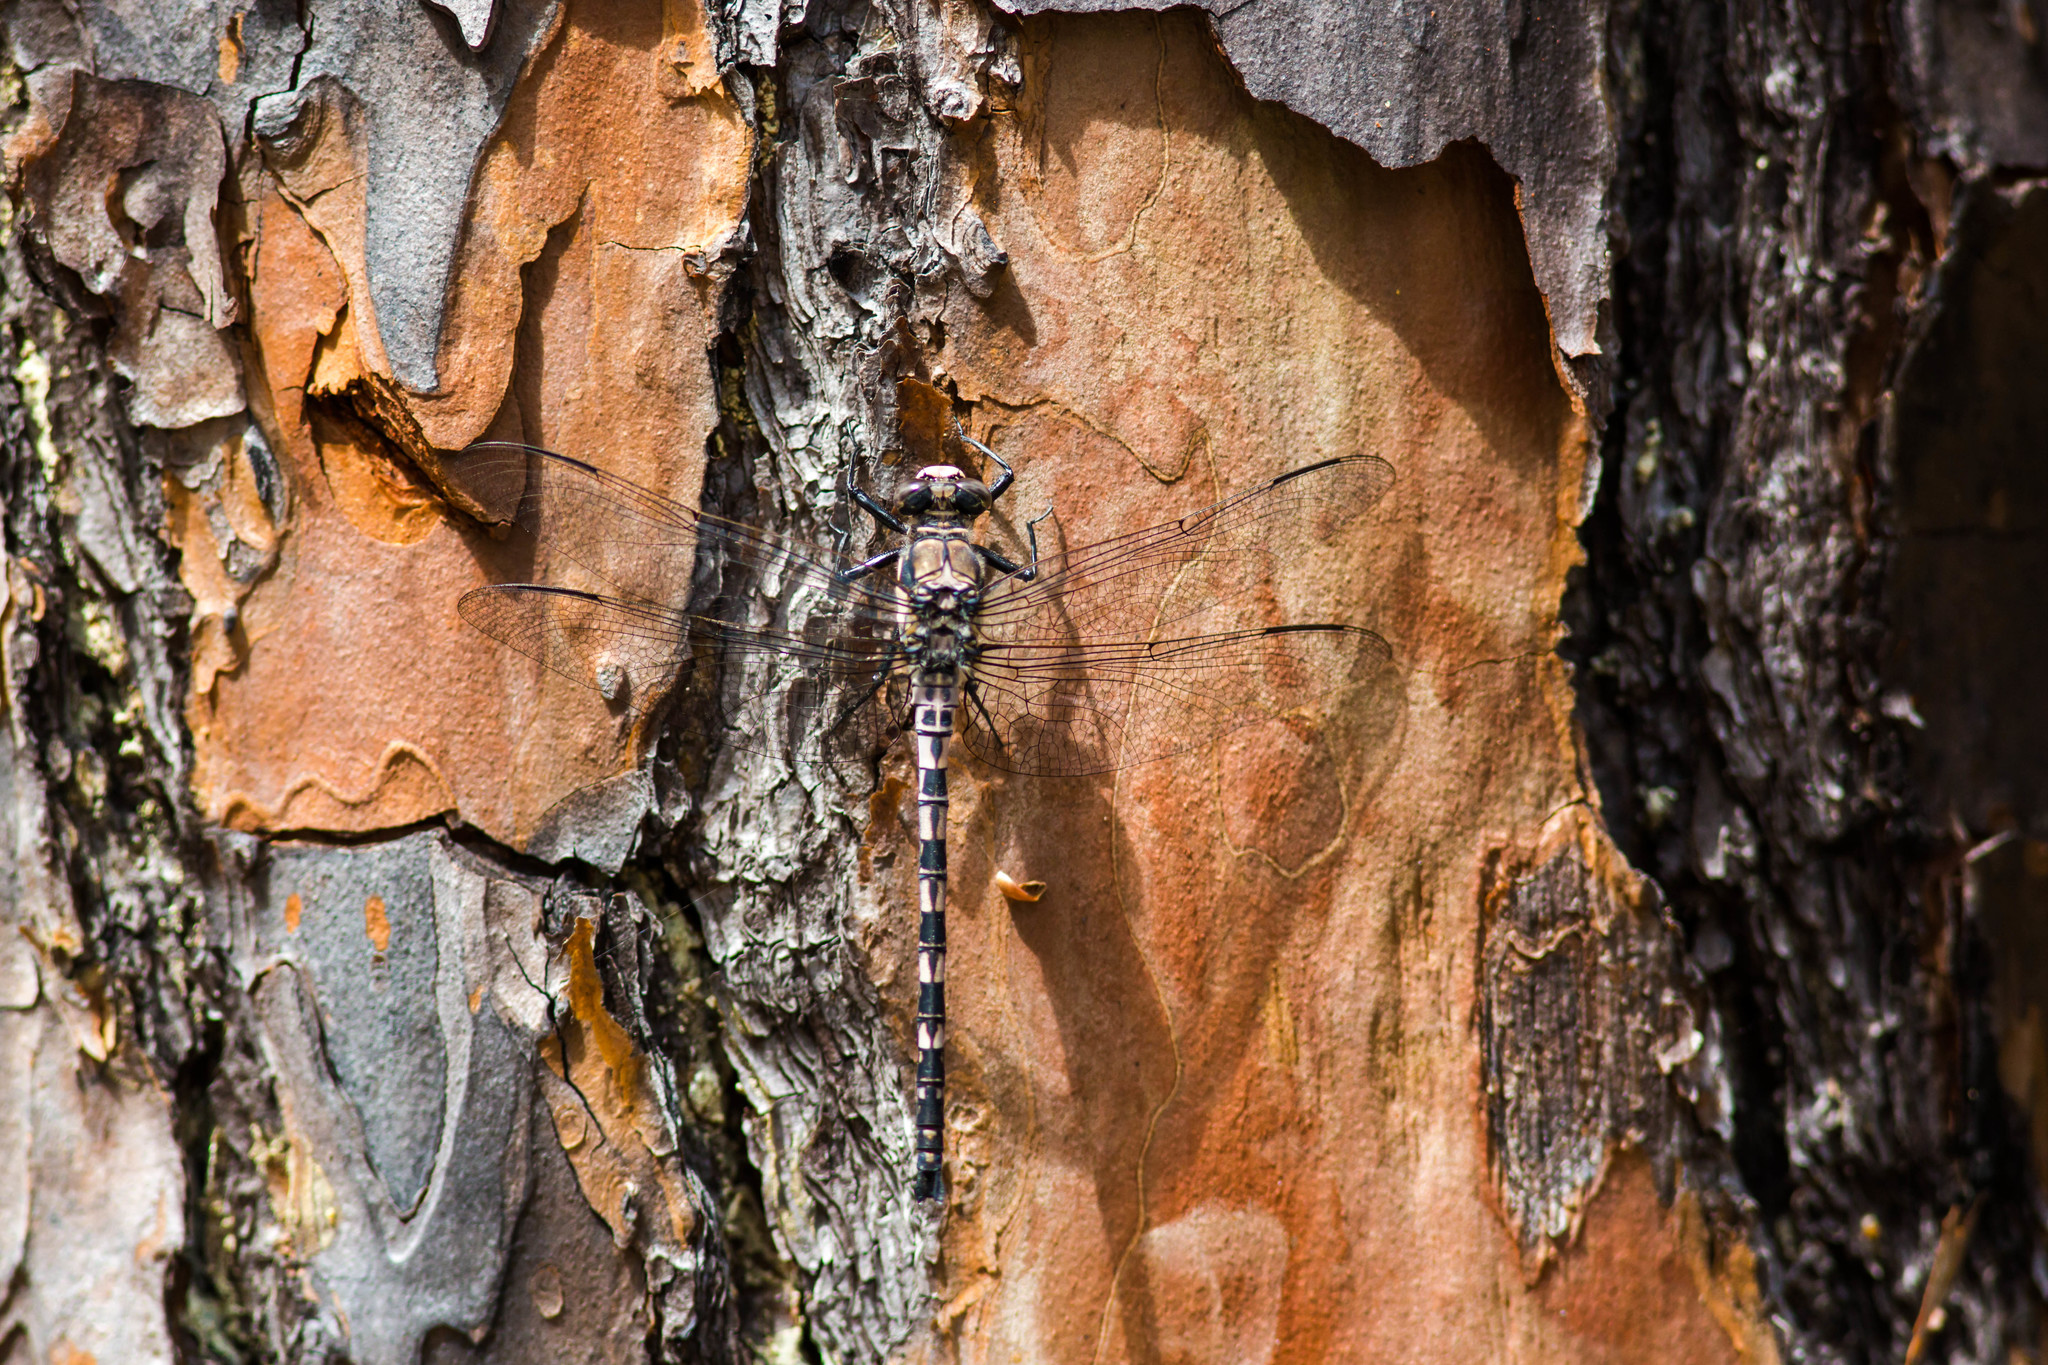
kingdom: Animalia
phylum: Arthropoda
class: Insecta
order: Odonata
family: Petaluridae
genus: Tachopteryx
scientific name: Tachopteryx thoreyi
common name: Gray petaltail
